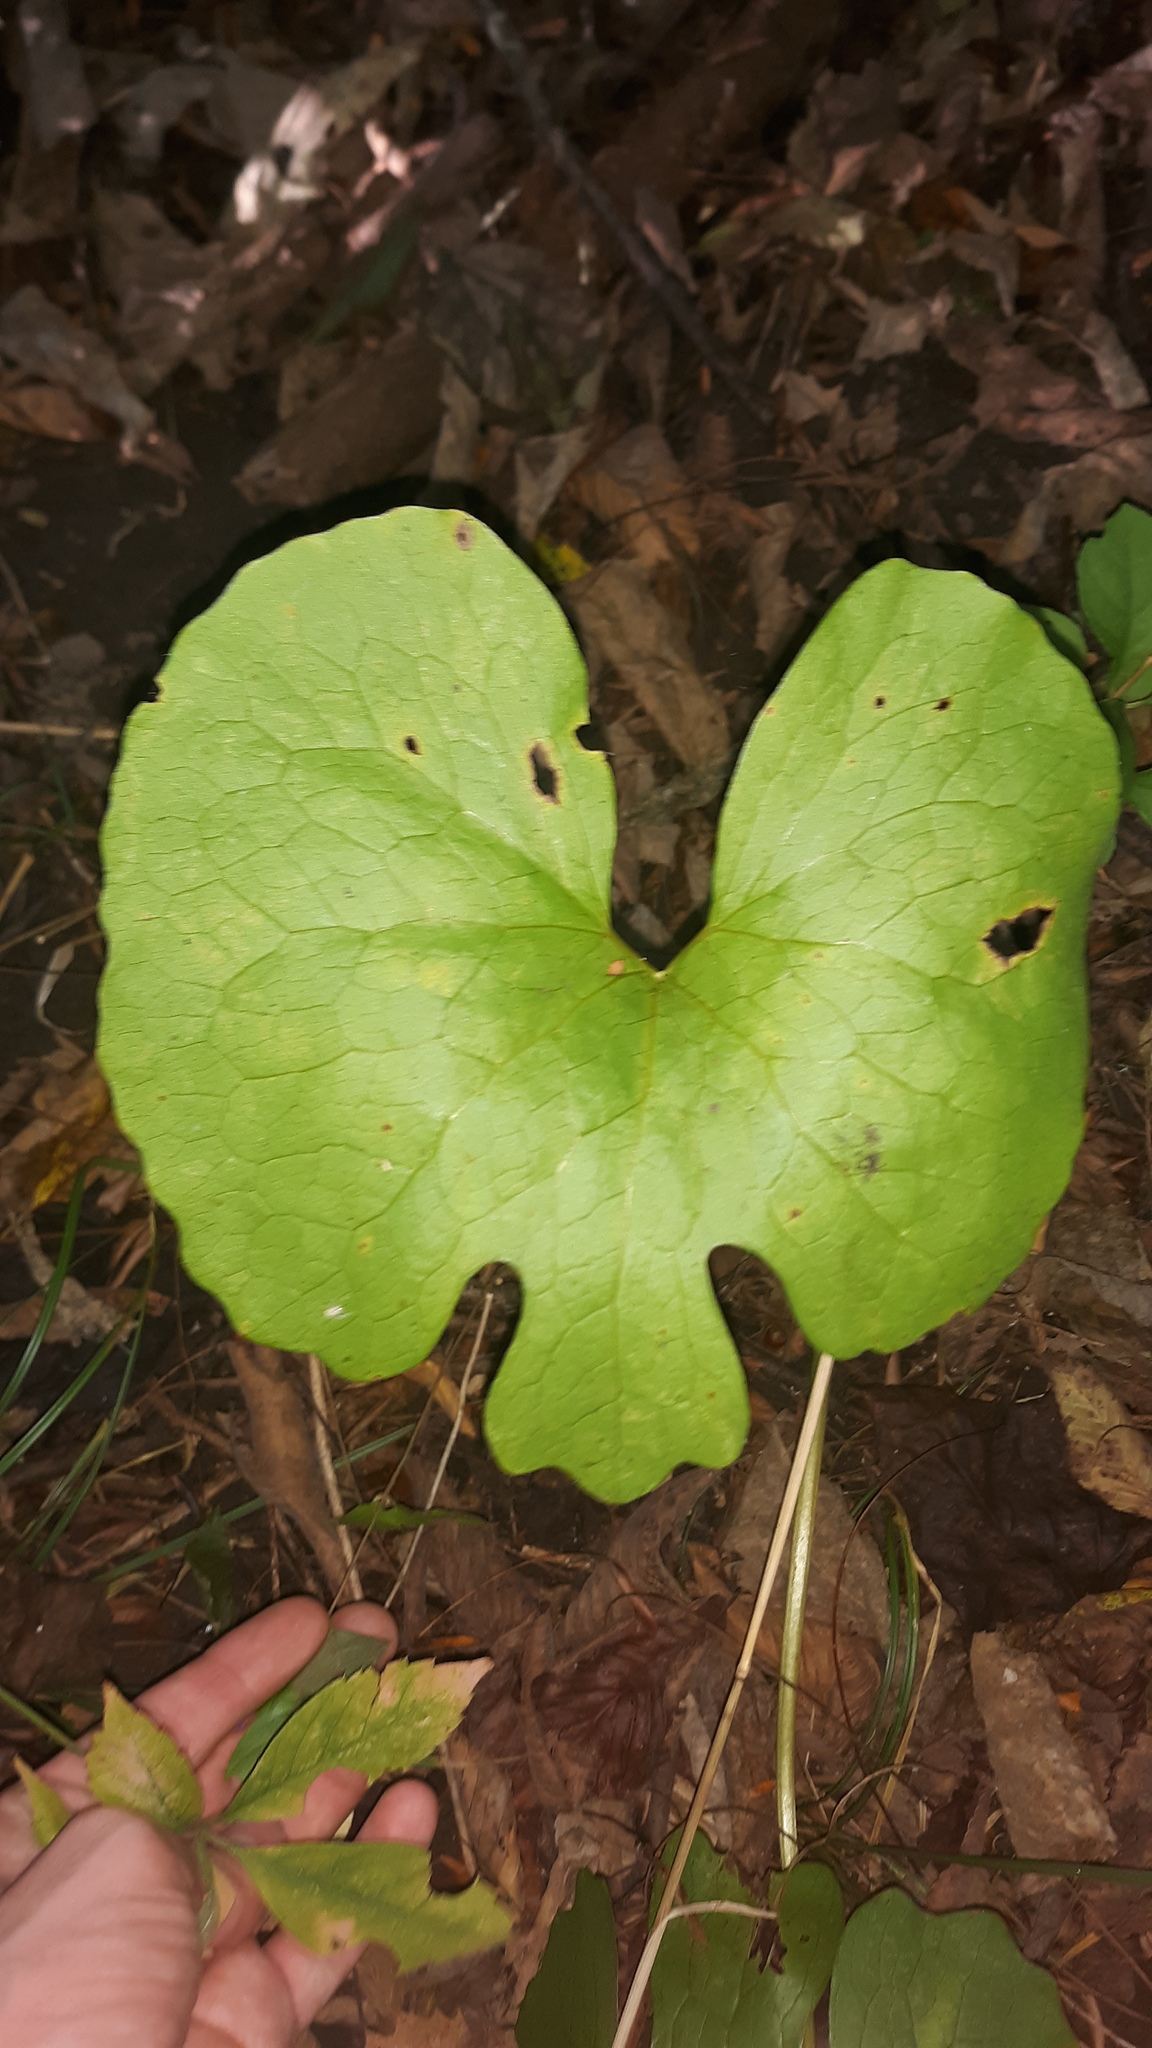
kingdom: Plantae
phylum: Tracheophyta
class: Magnoliopsida
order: Ranunculales
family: Papaveraceae
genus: Sanguinaria
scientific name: Sanguinaria canadensis
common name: Bloodroot
